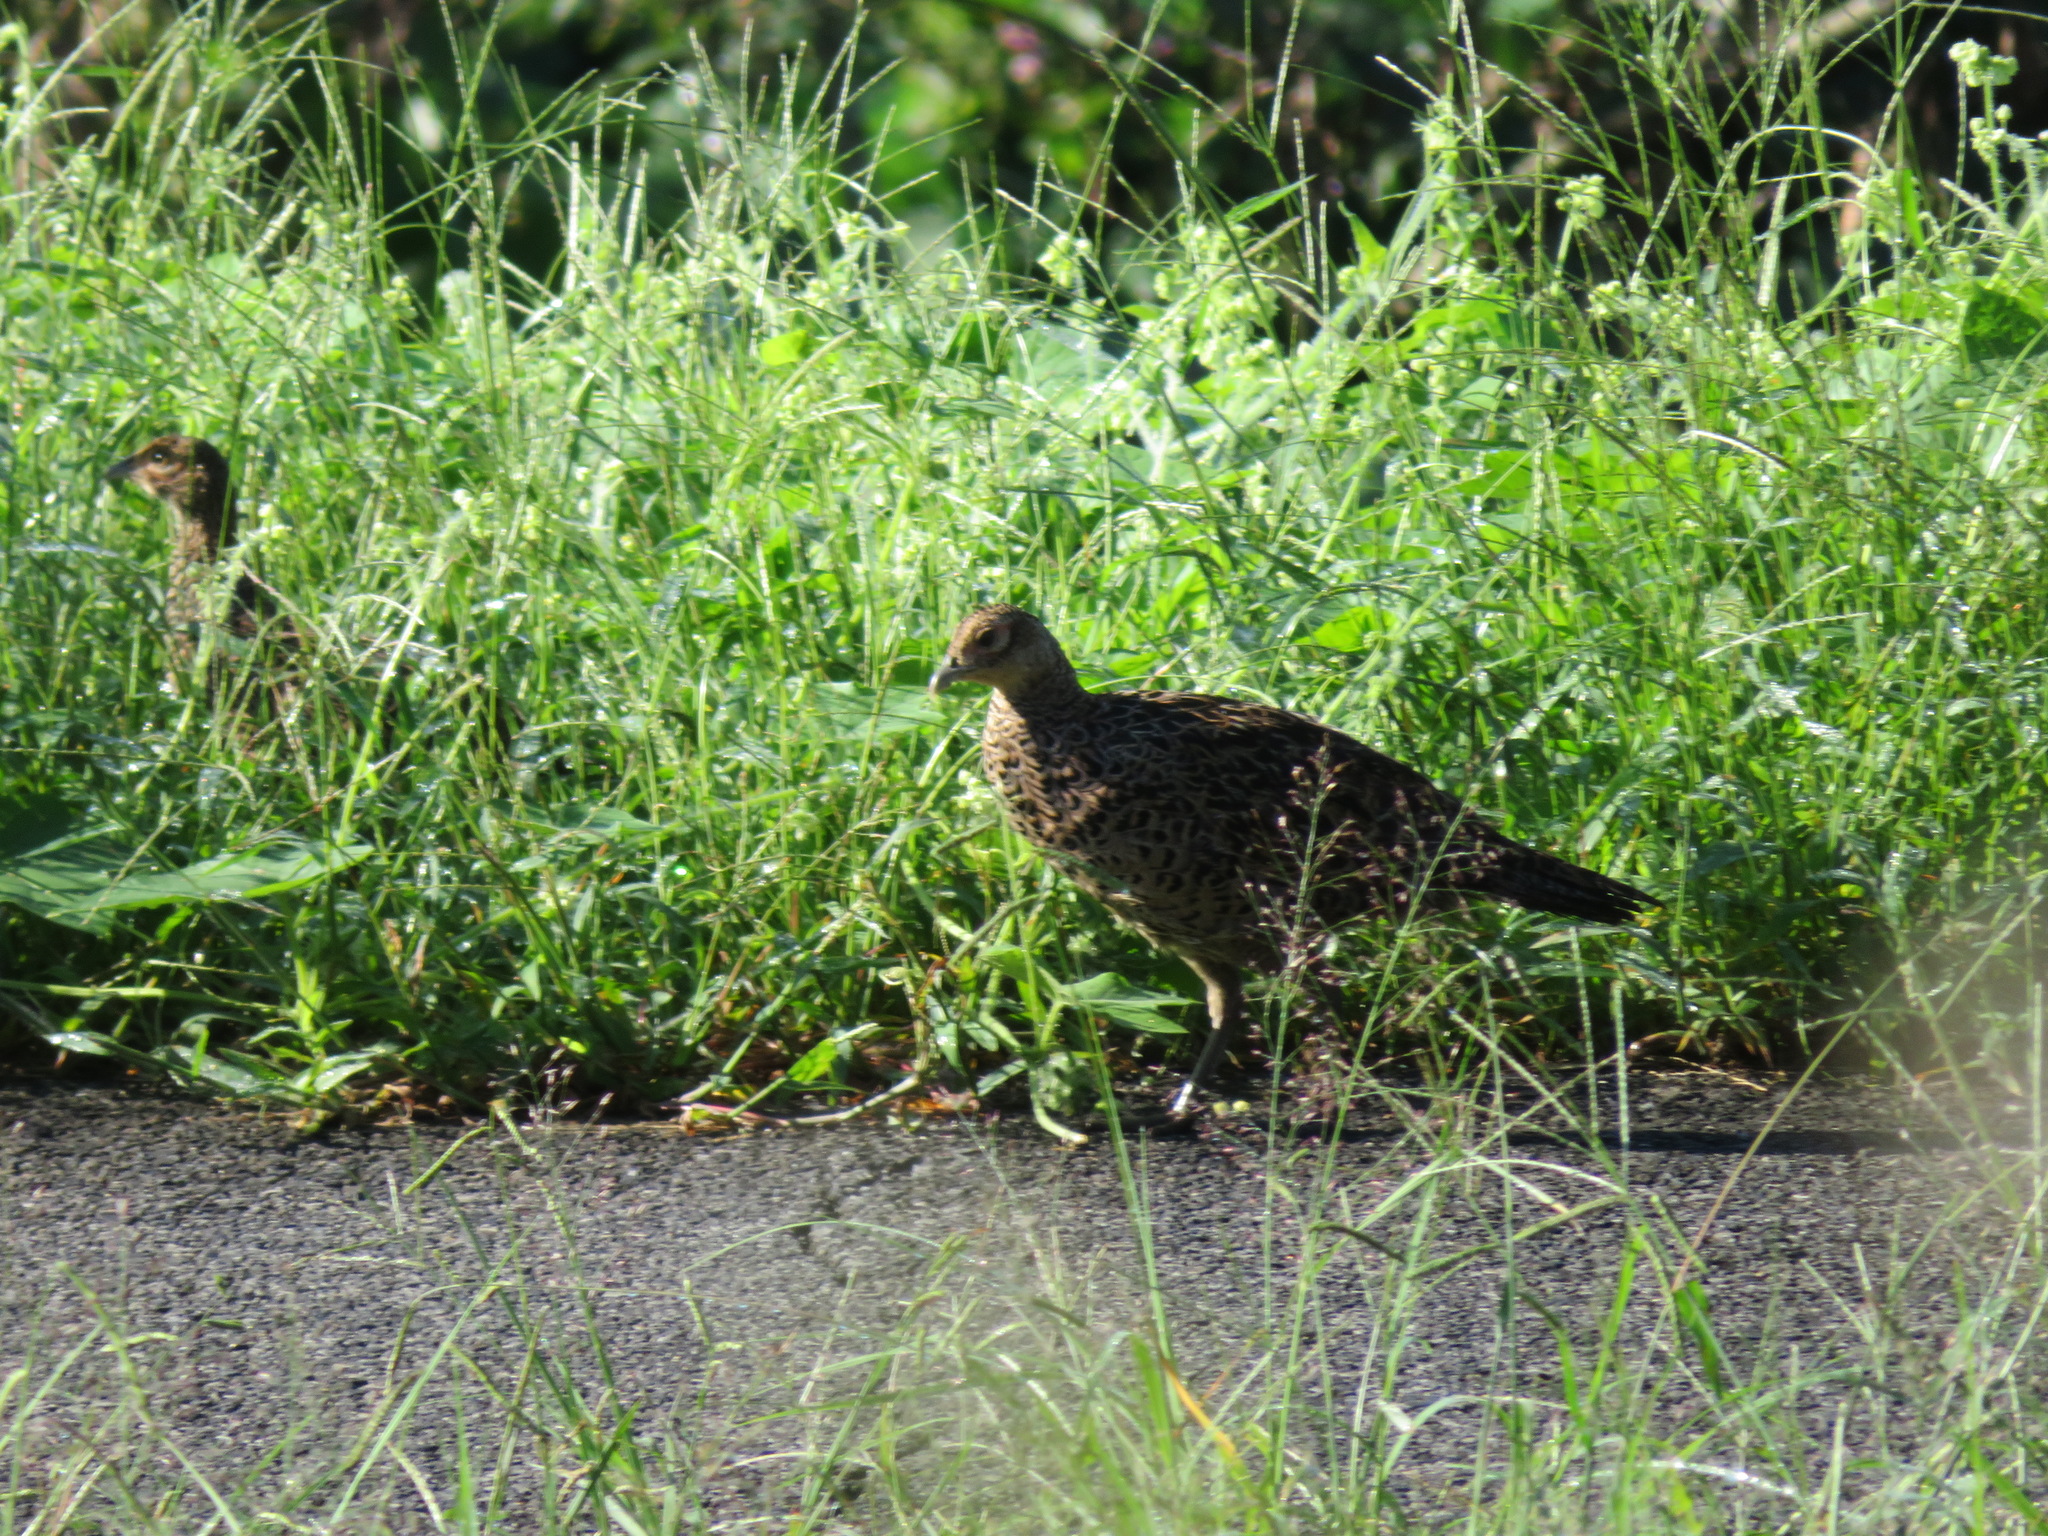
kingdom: Animalia
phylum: Chordata
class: Aves
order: Galliformes
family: Phasianidae
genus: Phasianus
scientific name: Phasianus versicolor
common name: Green pheasant
